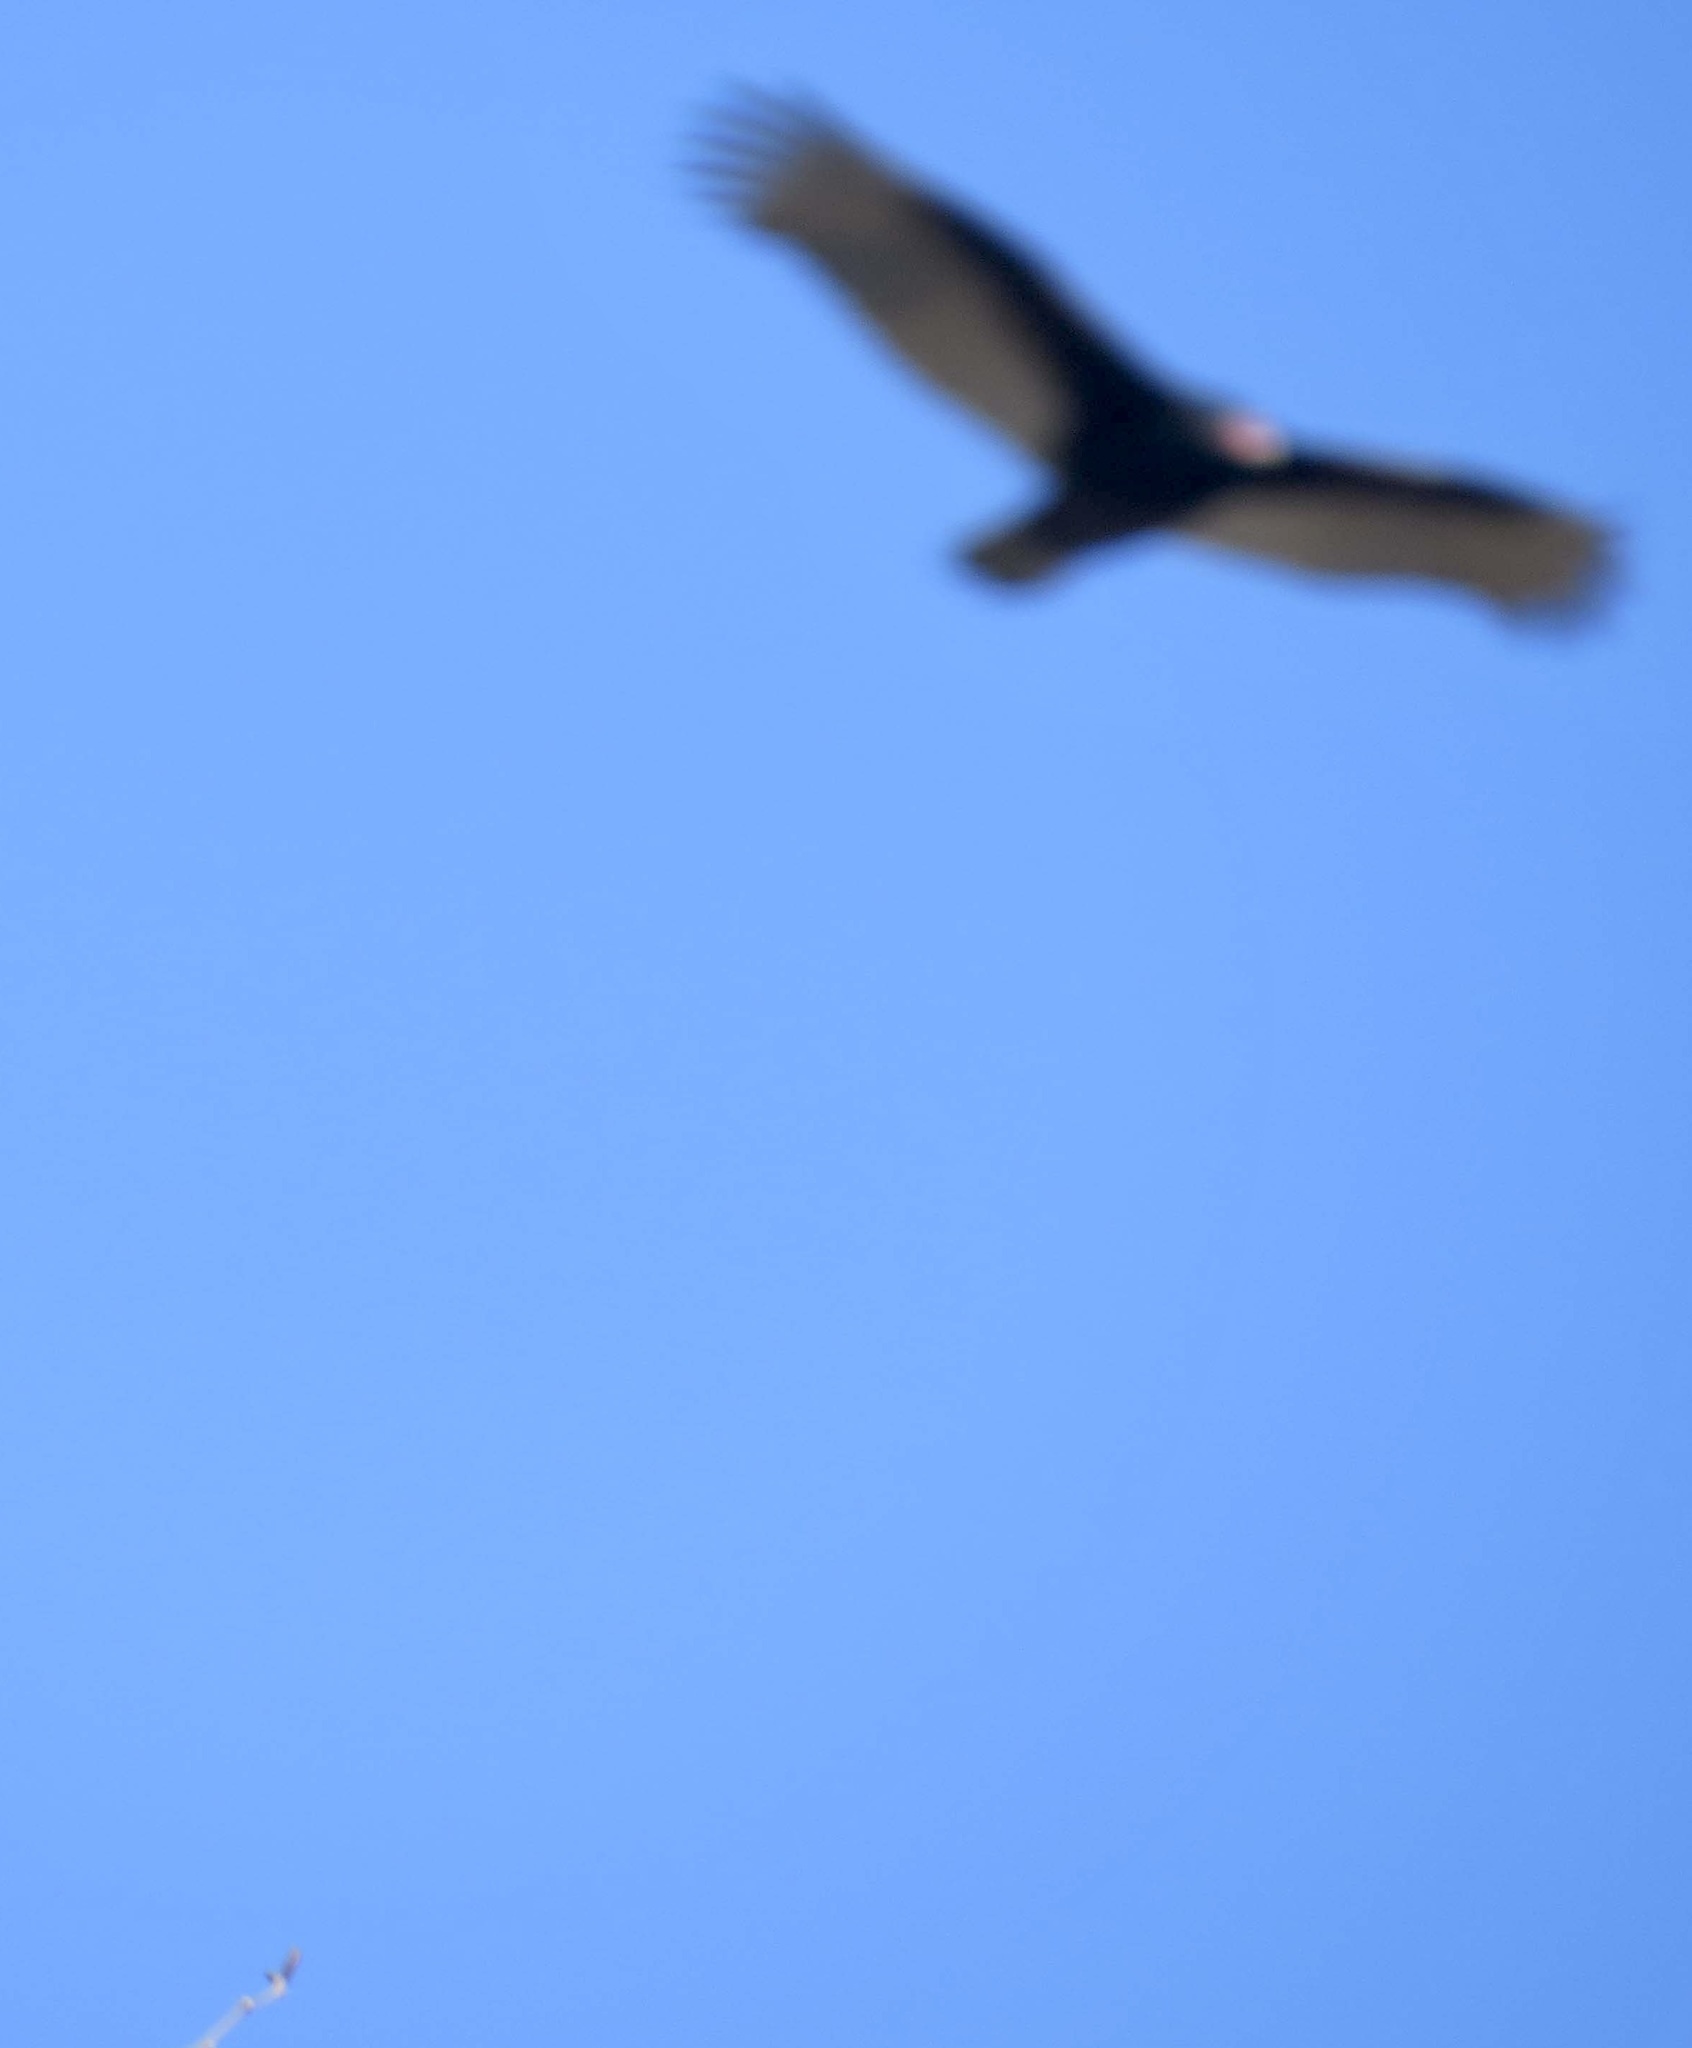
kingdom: Animalia
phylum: Chordata
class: Aves
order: Accipitriformes
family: Cathartidae
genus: Cathartes
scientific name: Cathartes aura
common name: Turkey vulture
